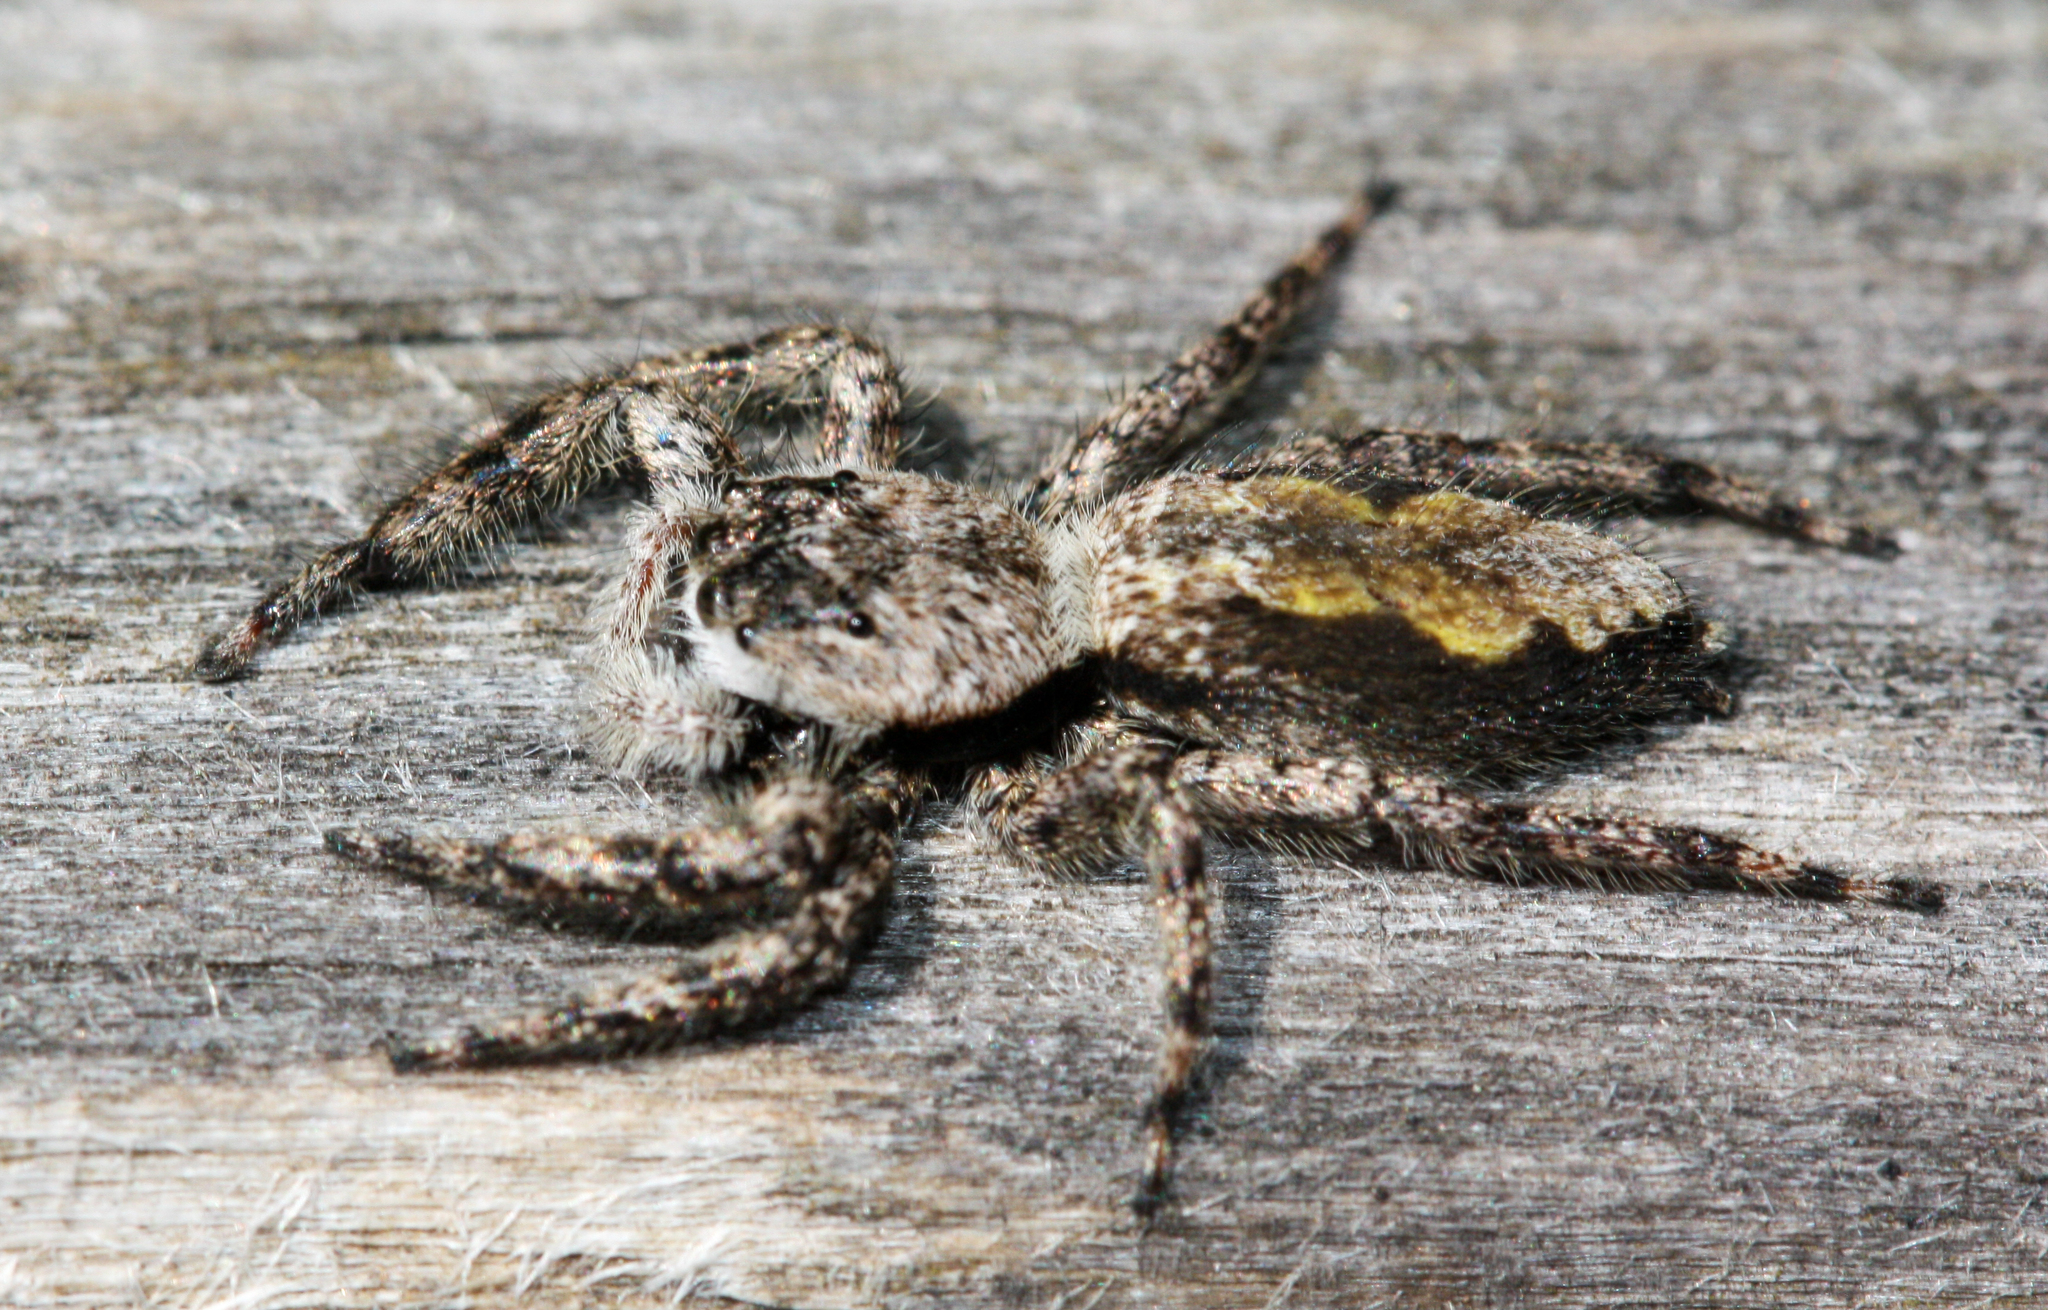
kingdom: Animalia
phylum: Arthropoda
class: Arachnida
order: Araneae
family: Salticidae
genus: Platycryptus
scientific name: Platycryptus undatus
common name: Tan jumping spider
